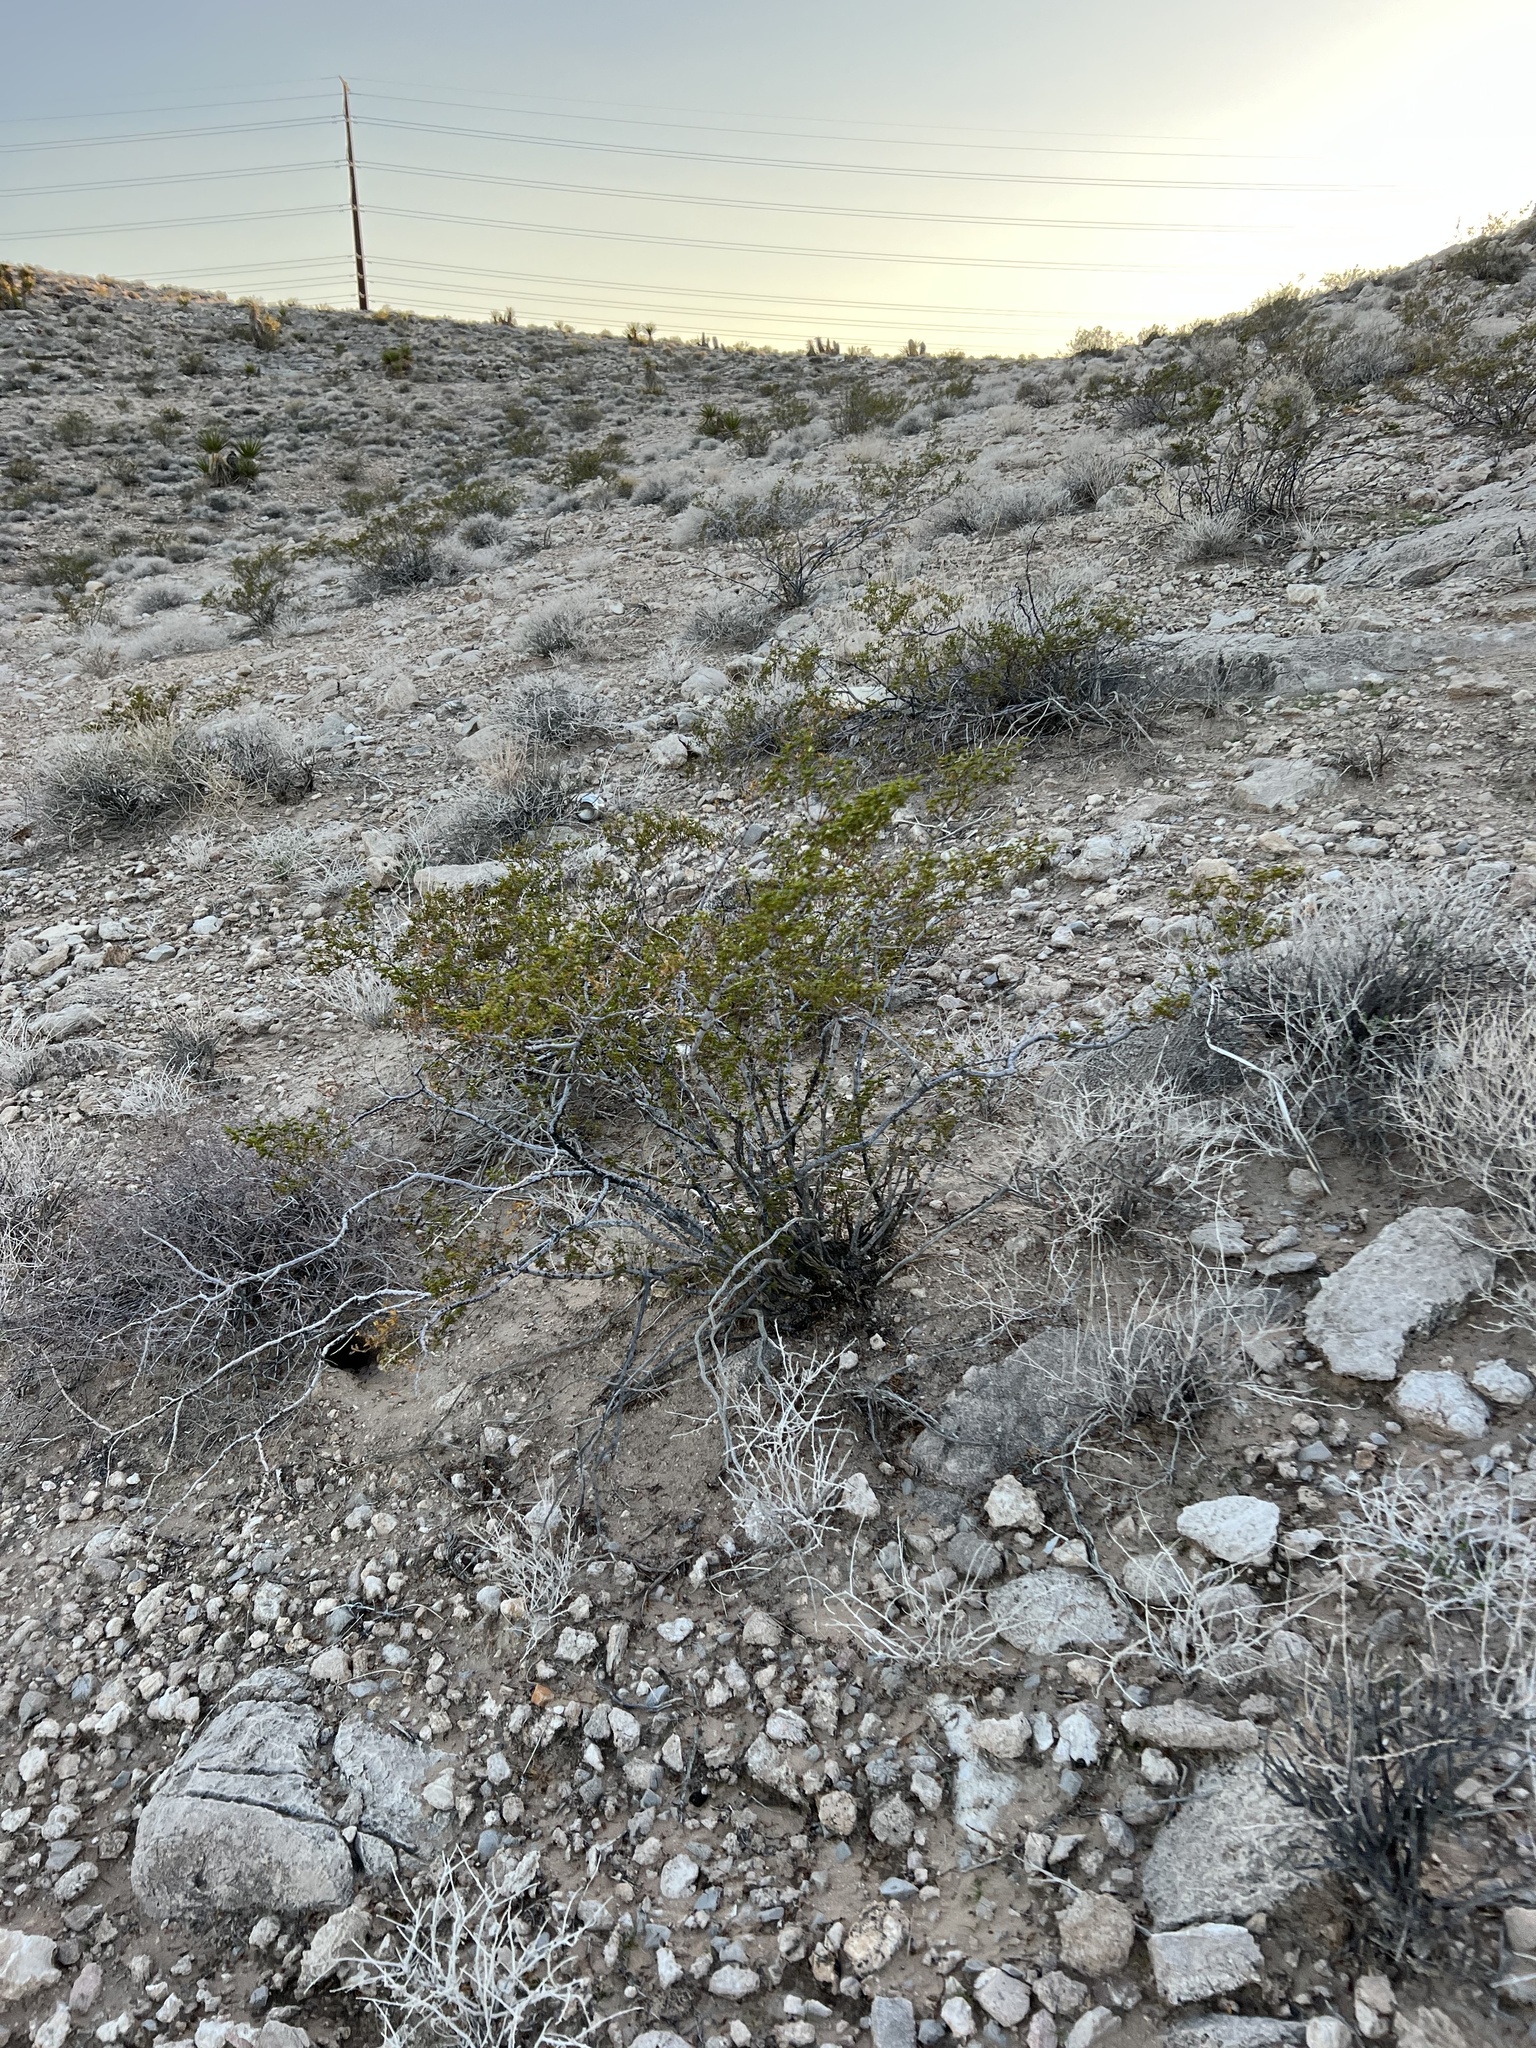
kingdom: Plantae
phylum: Tracheophyta
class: Magnoliopsida
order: Zygophyllales
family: Zygophyllaceae
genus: Larrea
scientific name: Larrea tridentata
